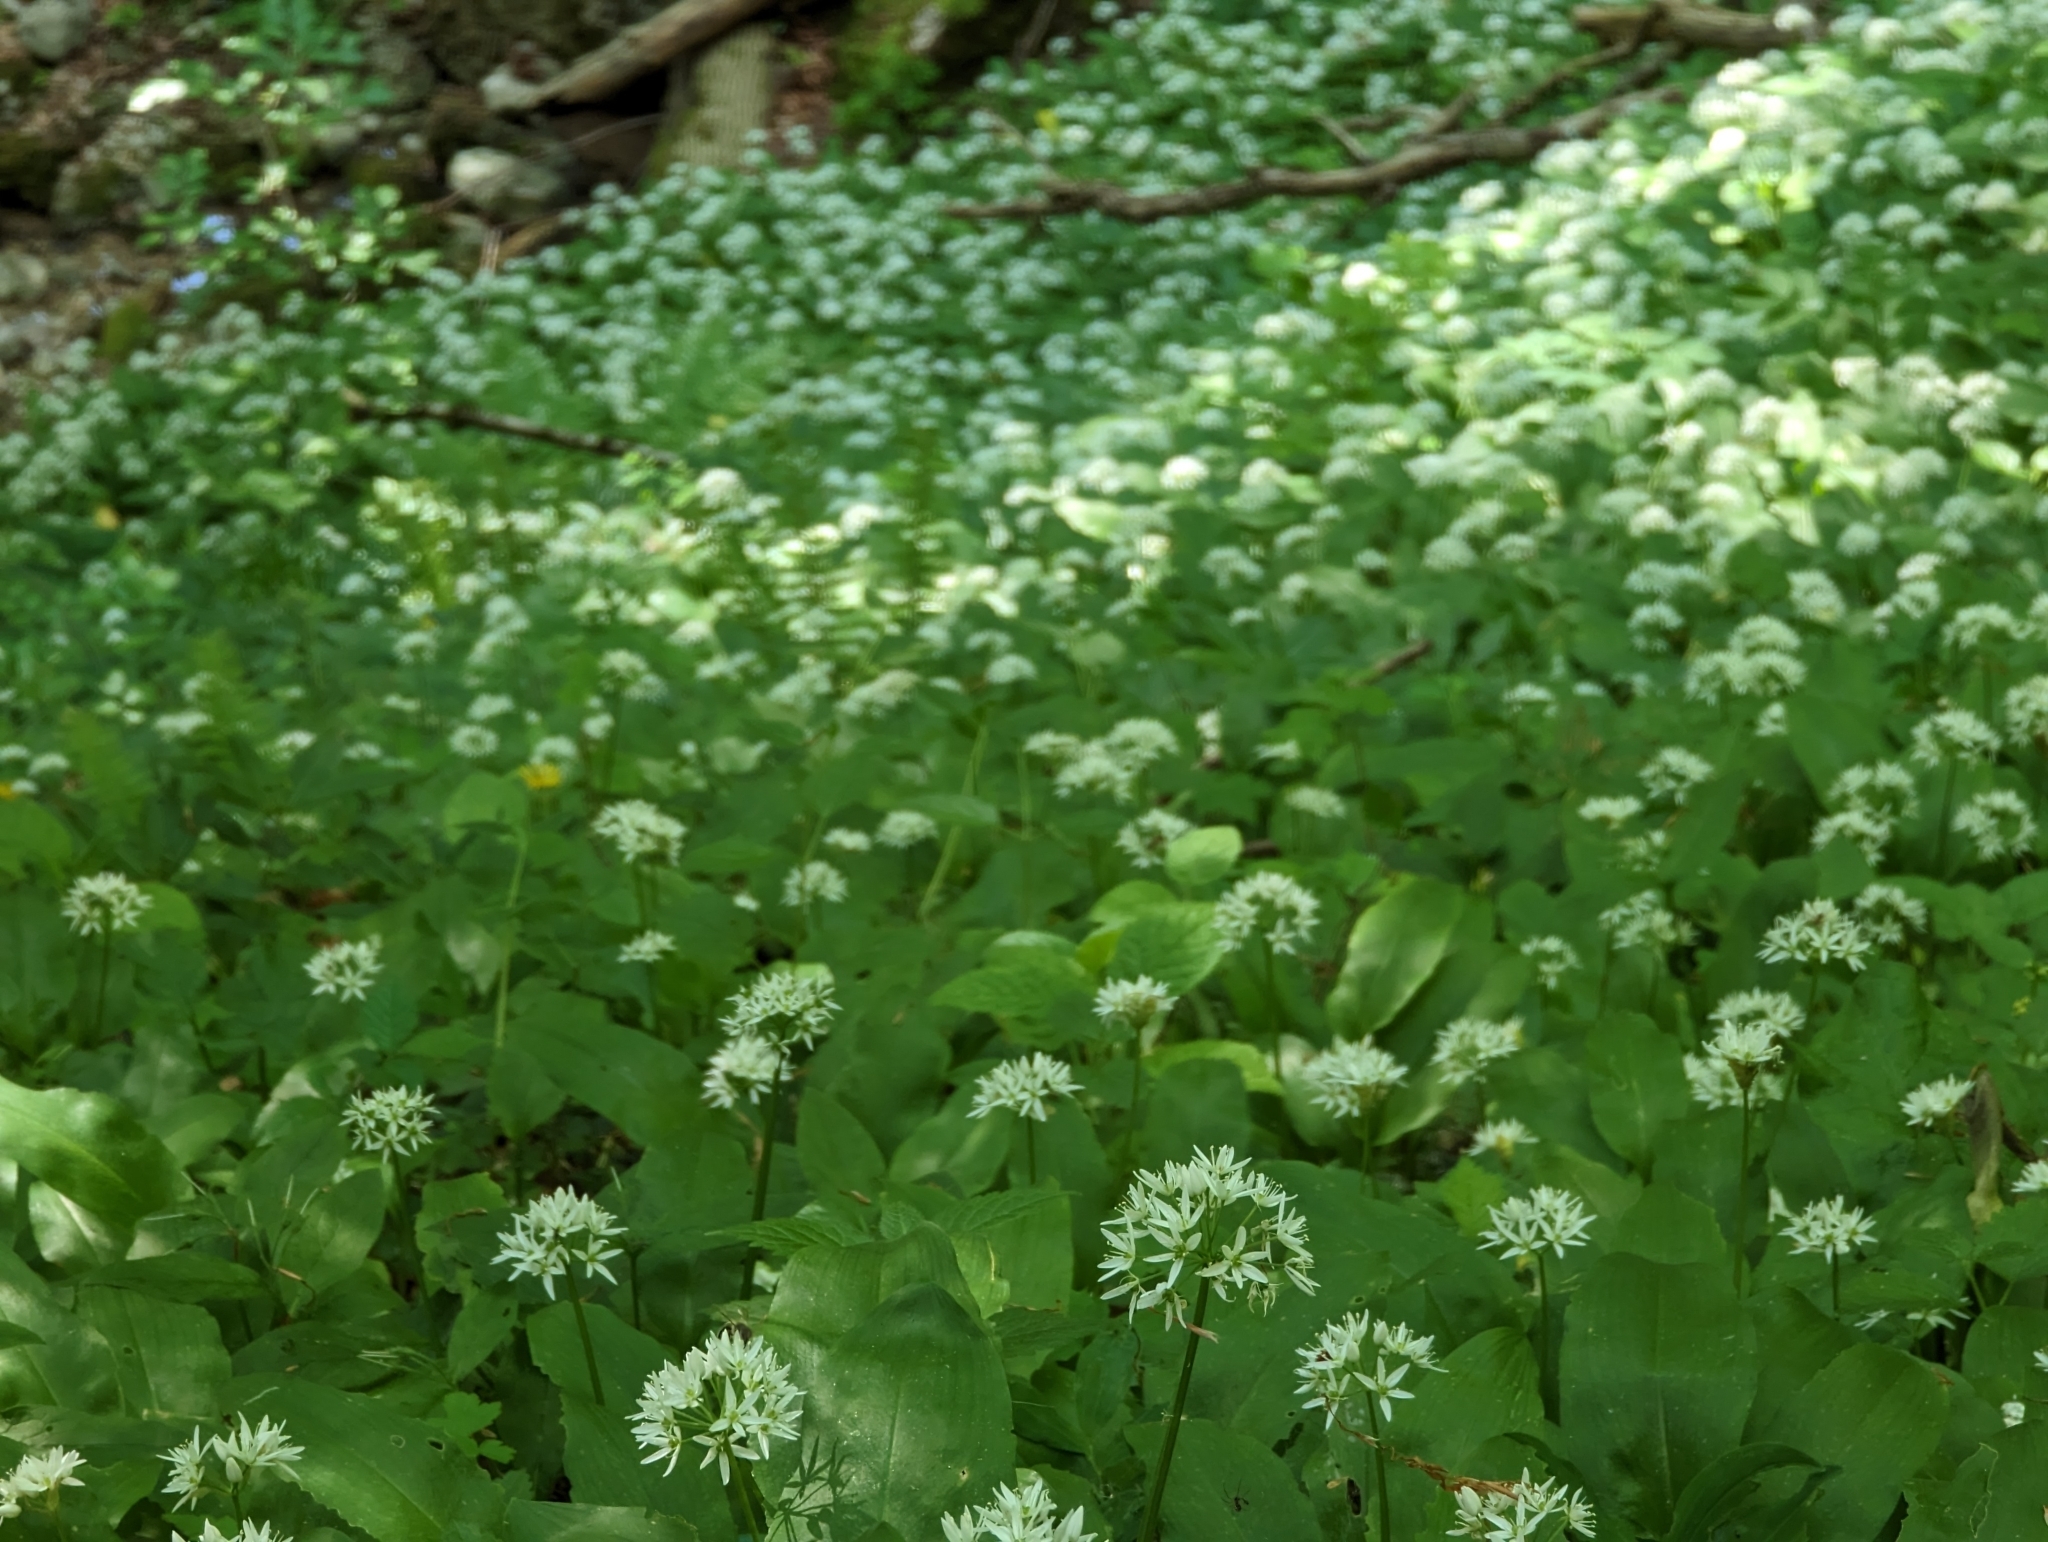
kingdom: Plantae
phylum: Tracheophyta
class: Liliopsida
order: Asparagales
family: Amaryllidaceae
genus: Allium
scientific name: Allium ursinum
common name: Ramsons
